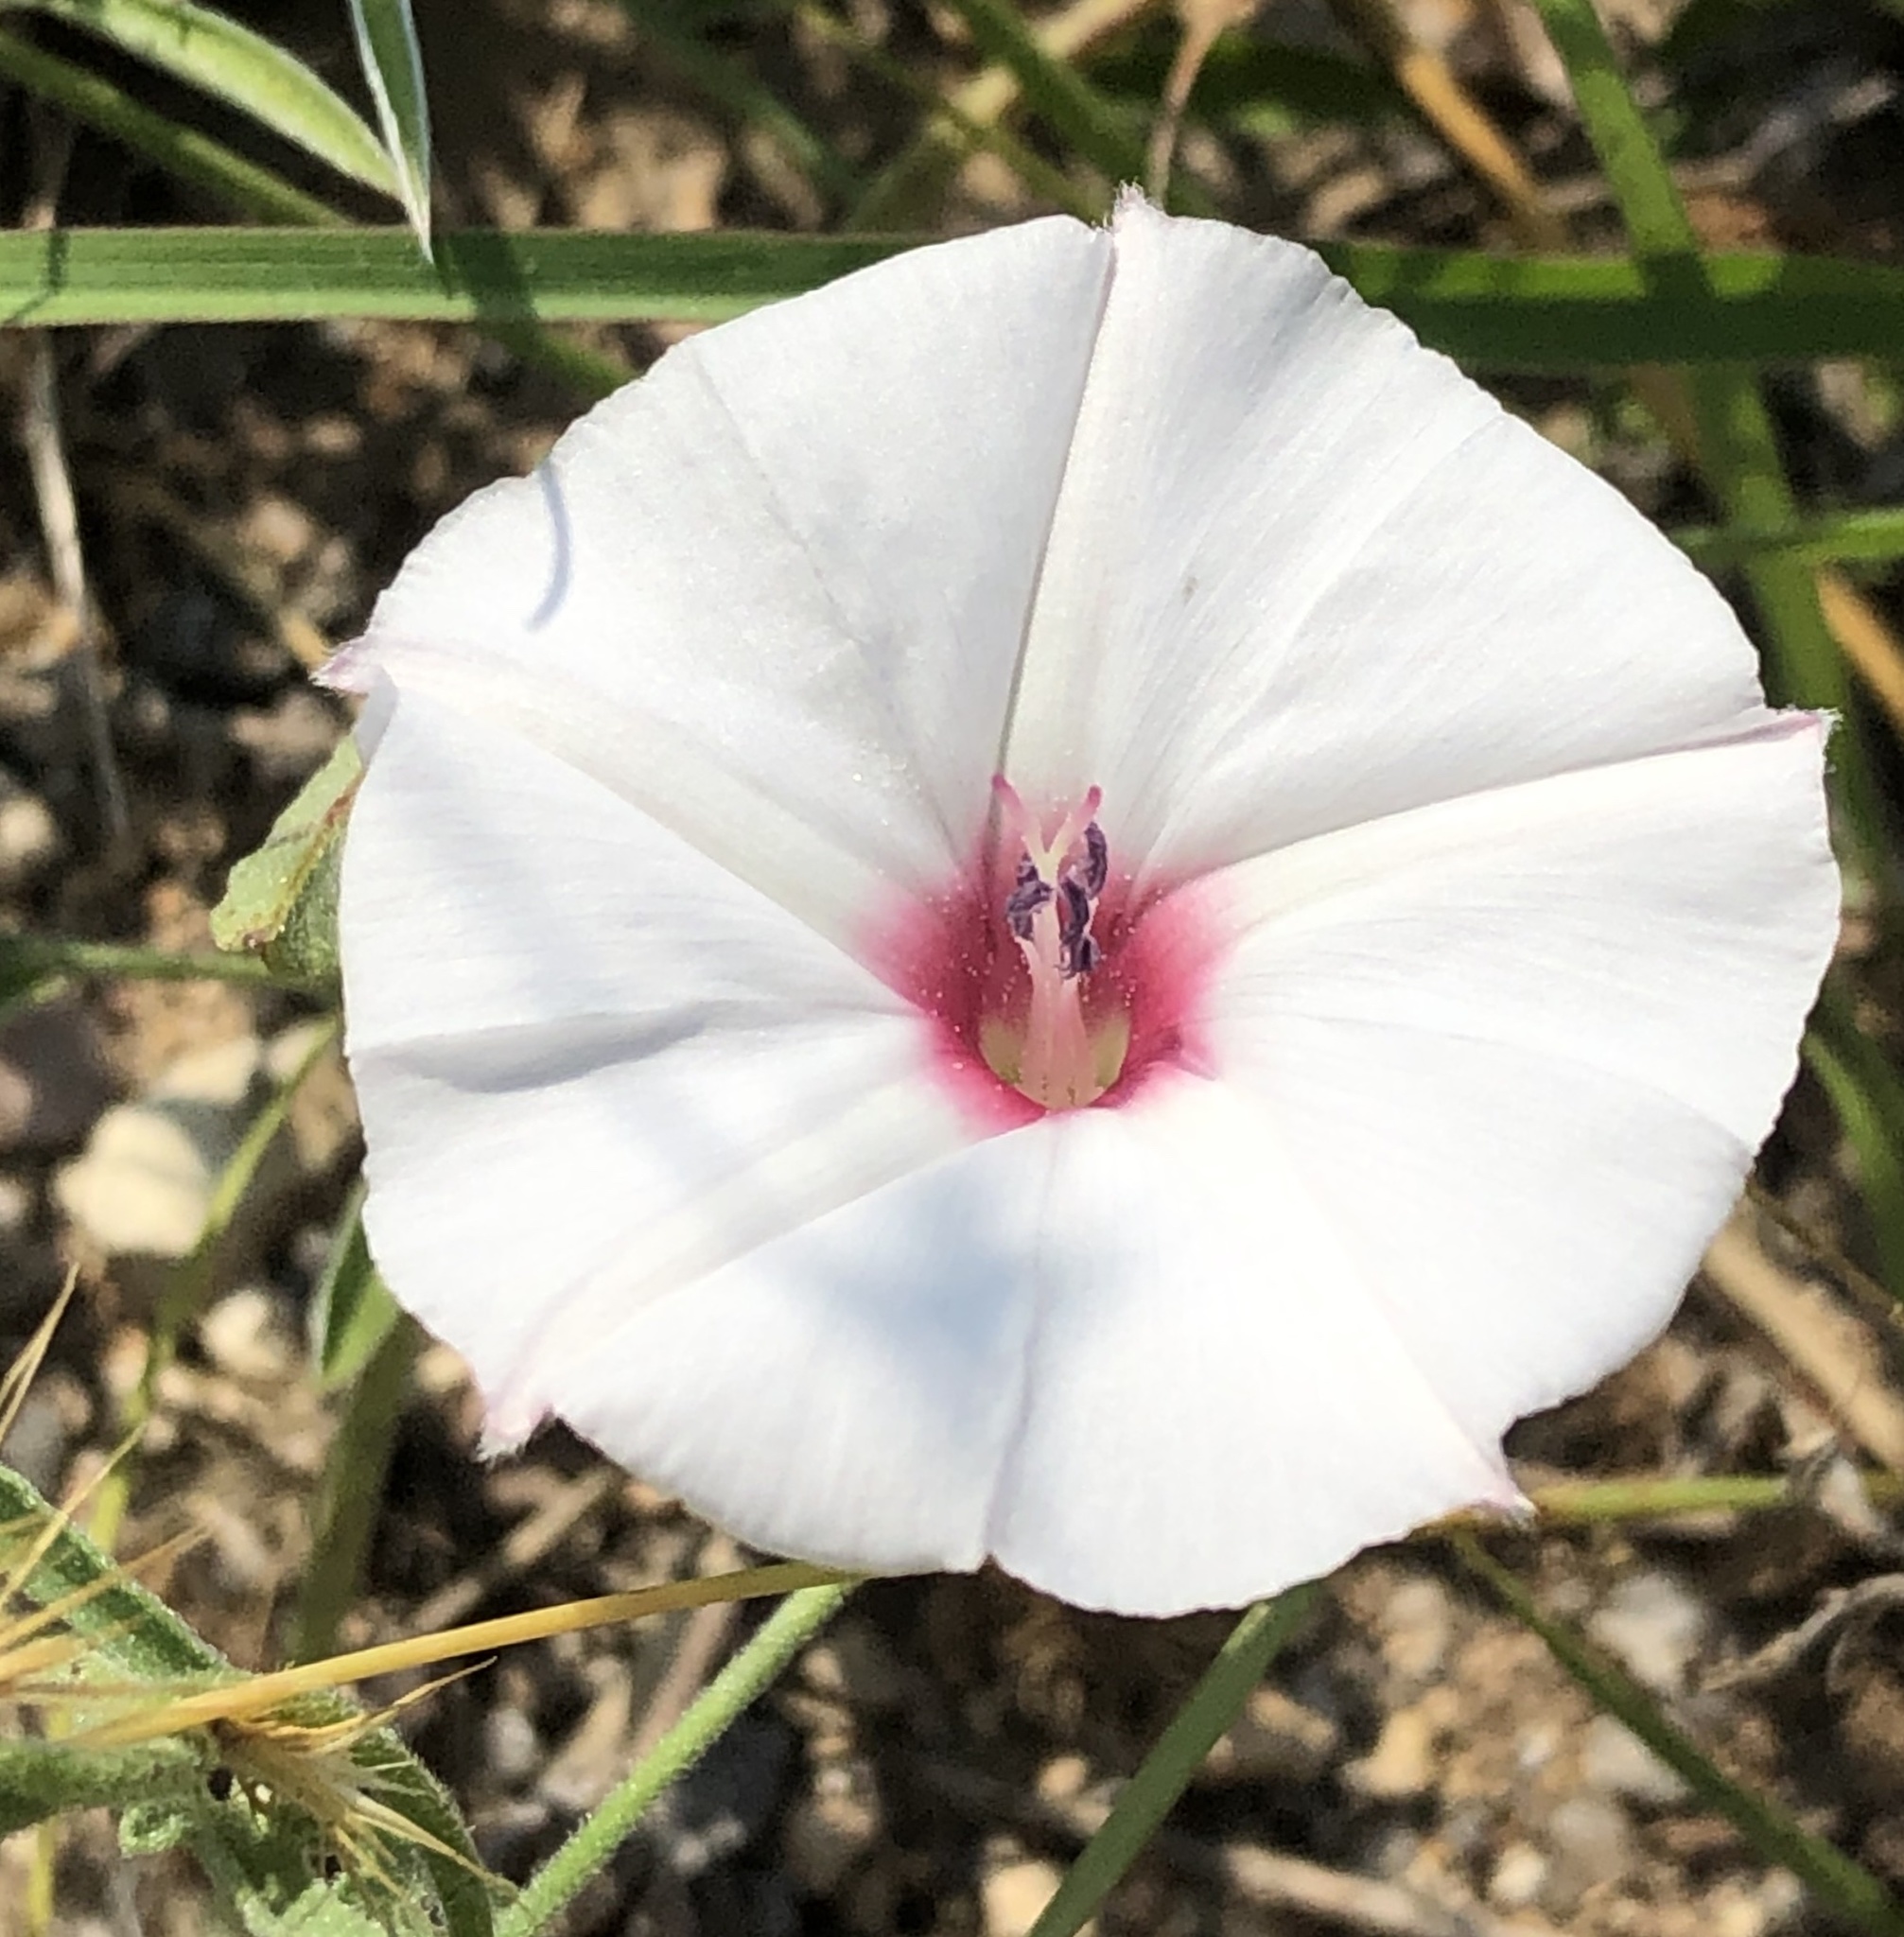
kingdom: Plantae
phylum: Tracheophyta
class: Magnoliopsida
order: Solanales
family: Convolvulaceae
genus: Convolvulus
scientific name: Convolvulus equitans
